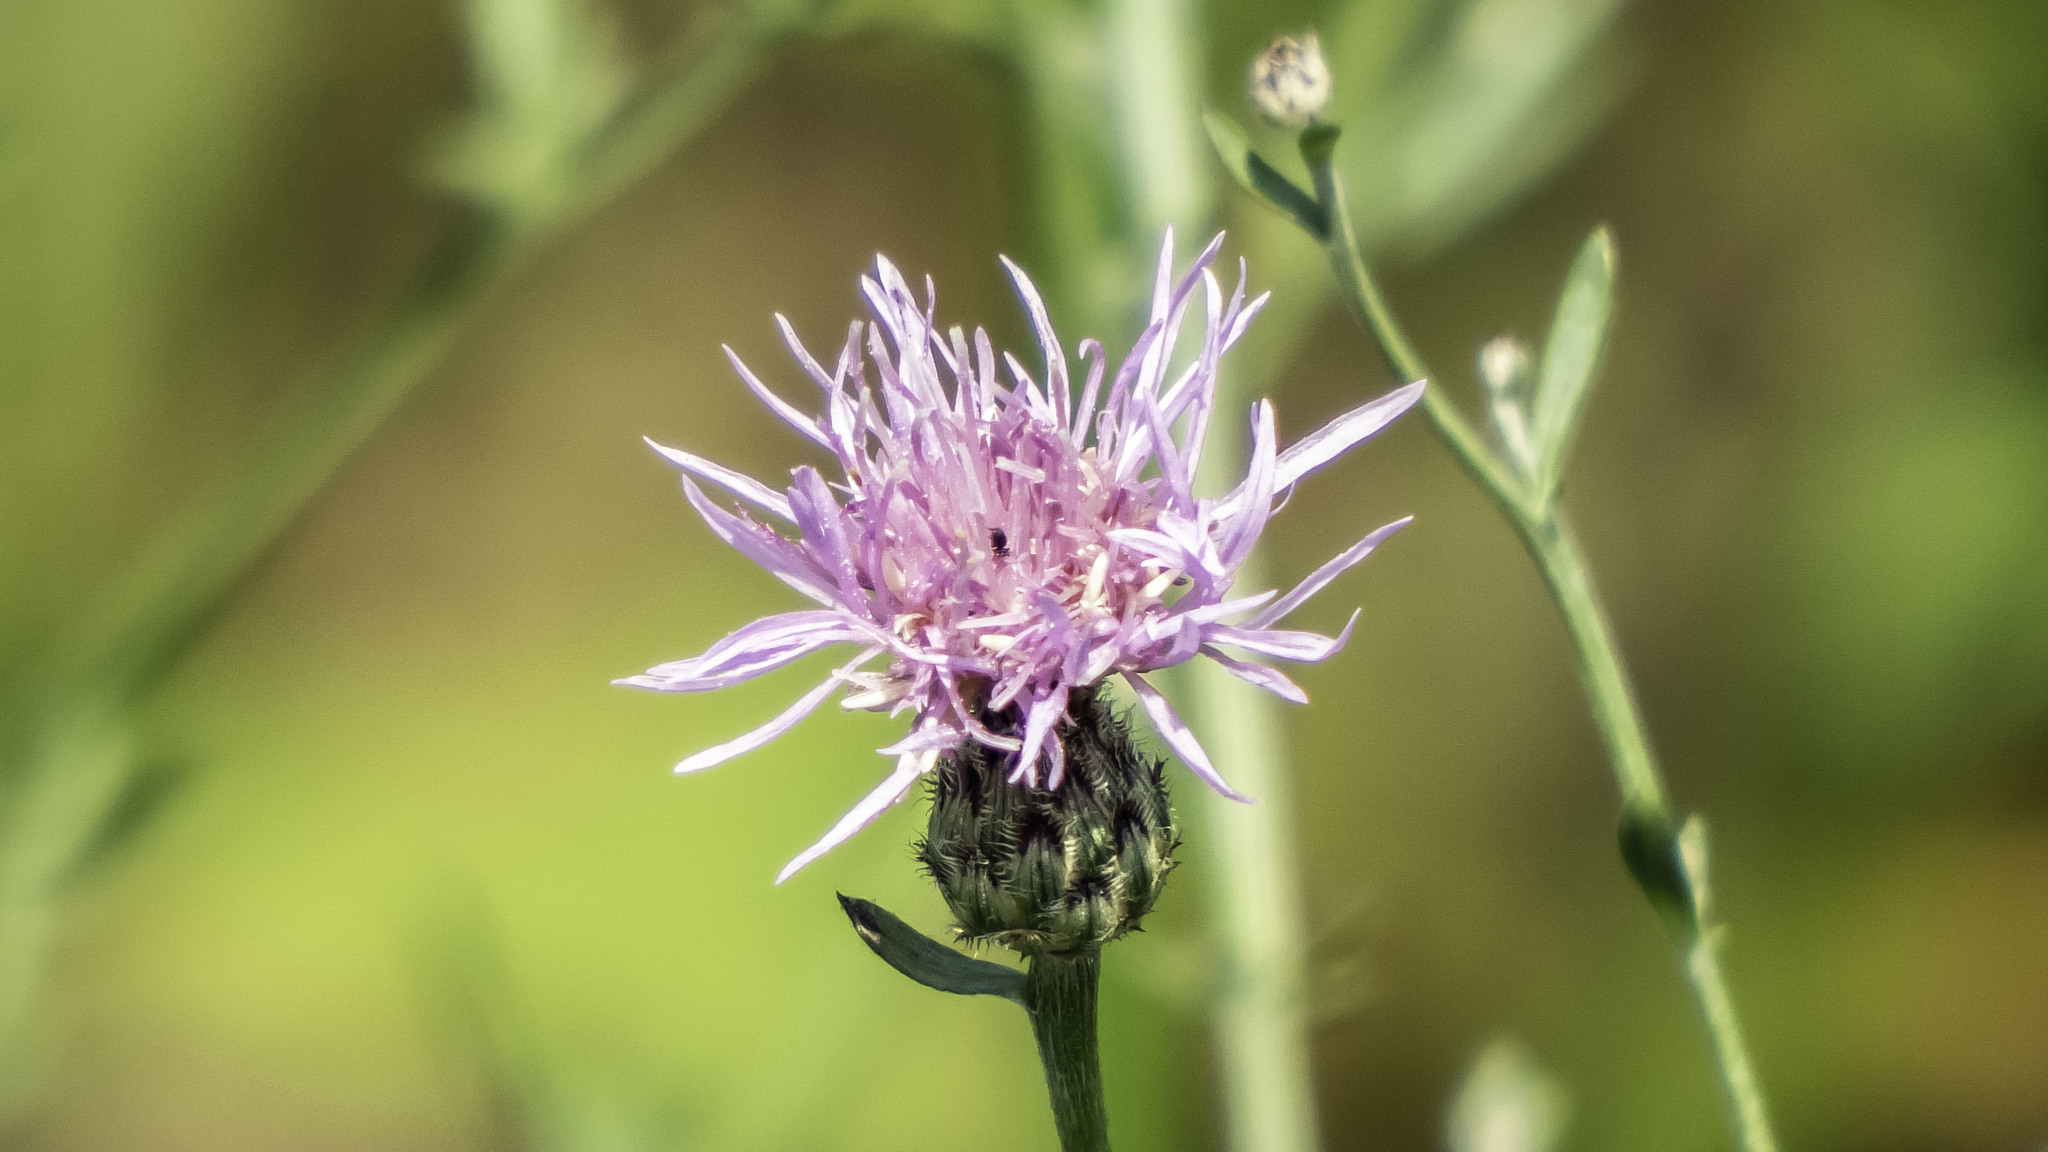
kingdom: Plantae
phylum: Tracheophyta
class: Magnoliopsida
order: Asterales
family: Asteraceae
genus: Centaurea
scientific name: Centaurea stoebe
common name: Spotted knapweed
